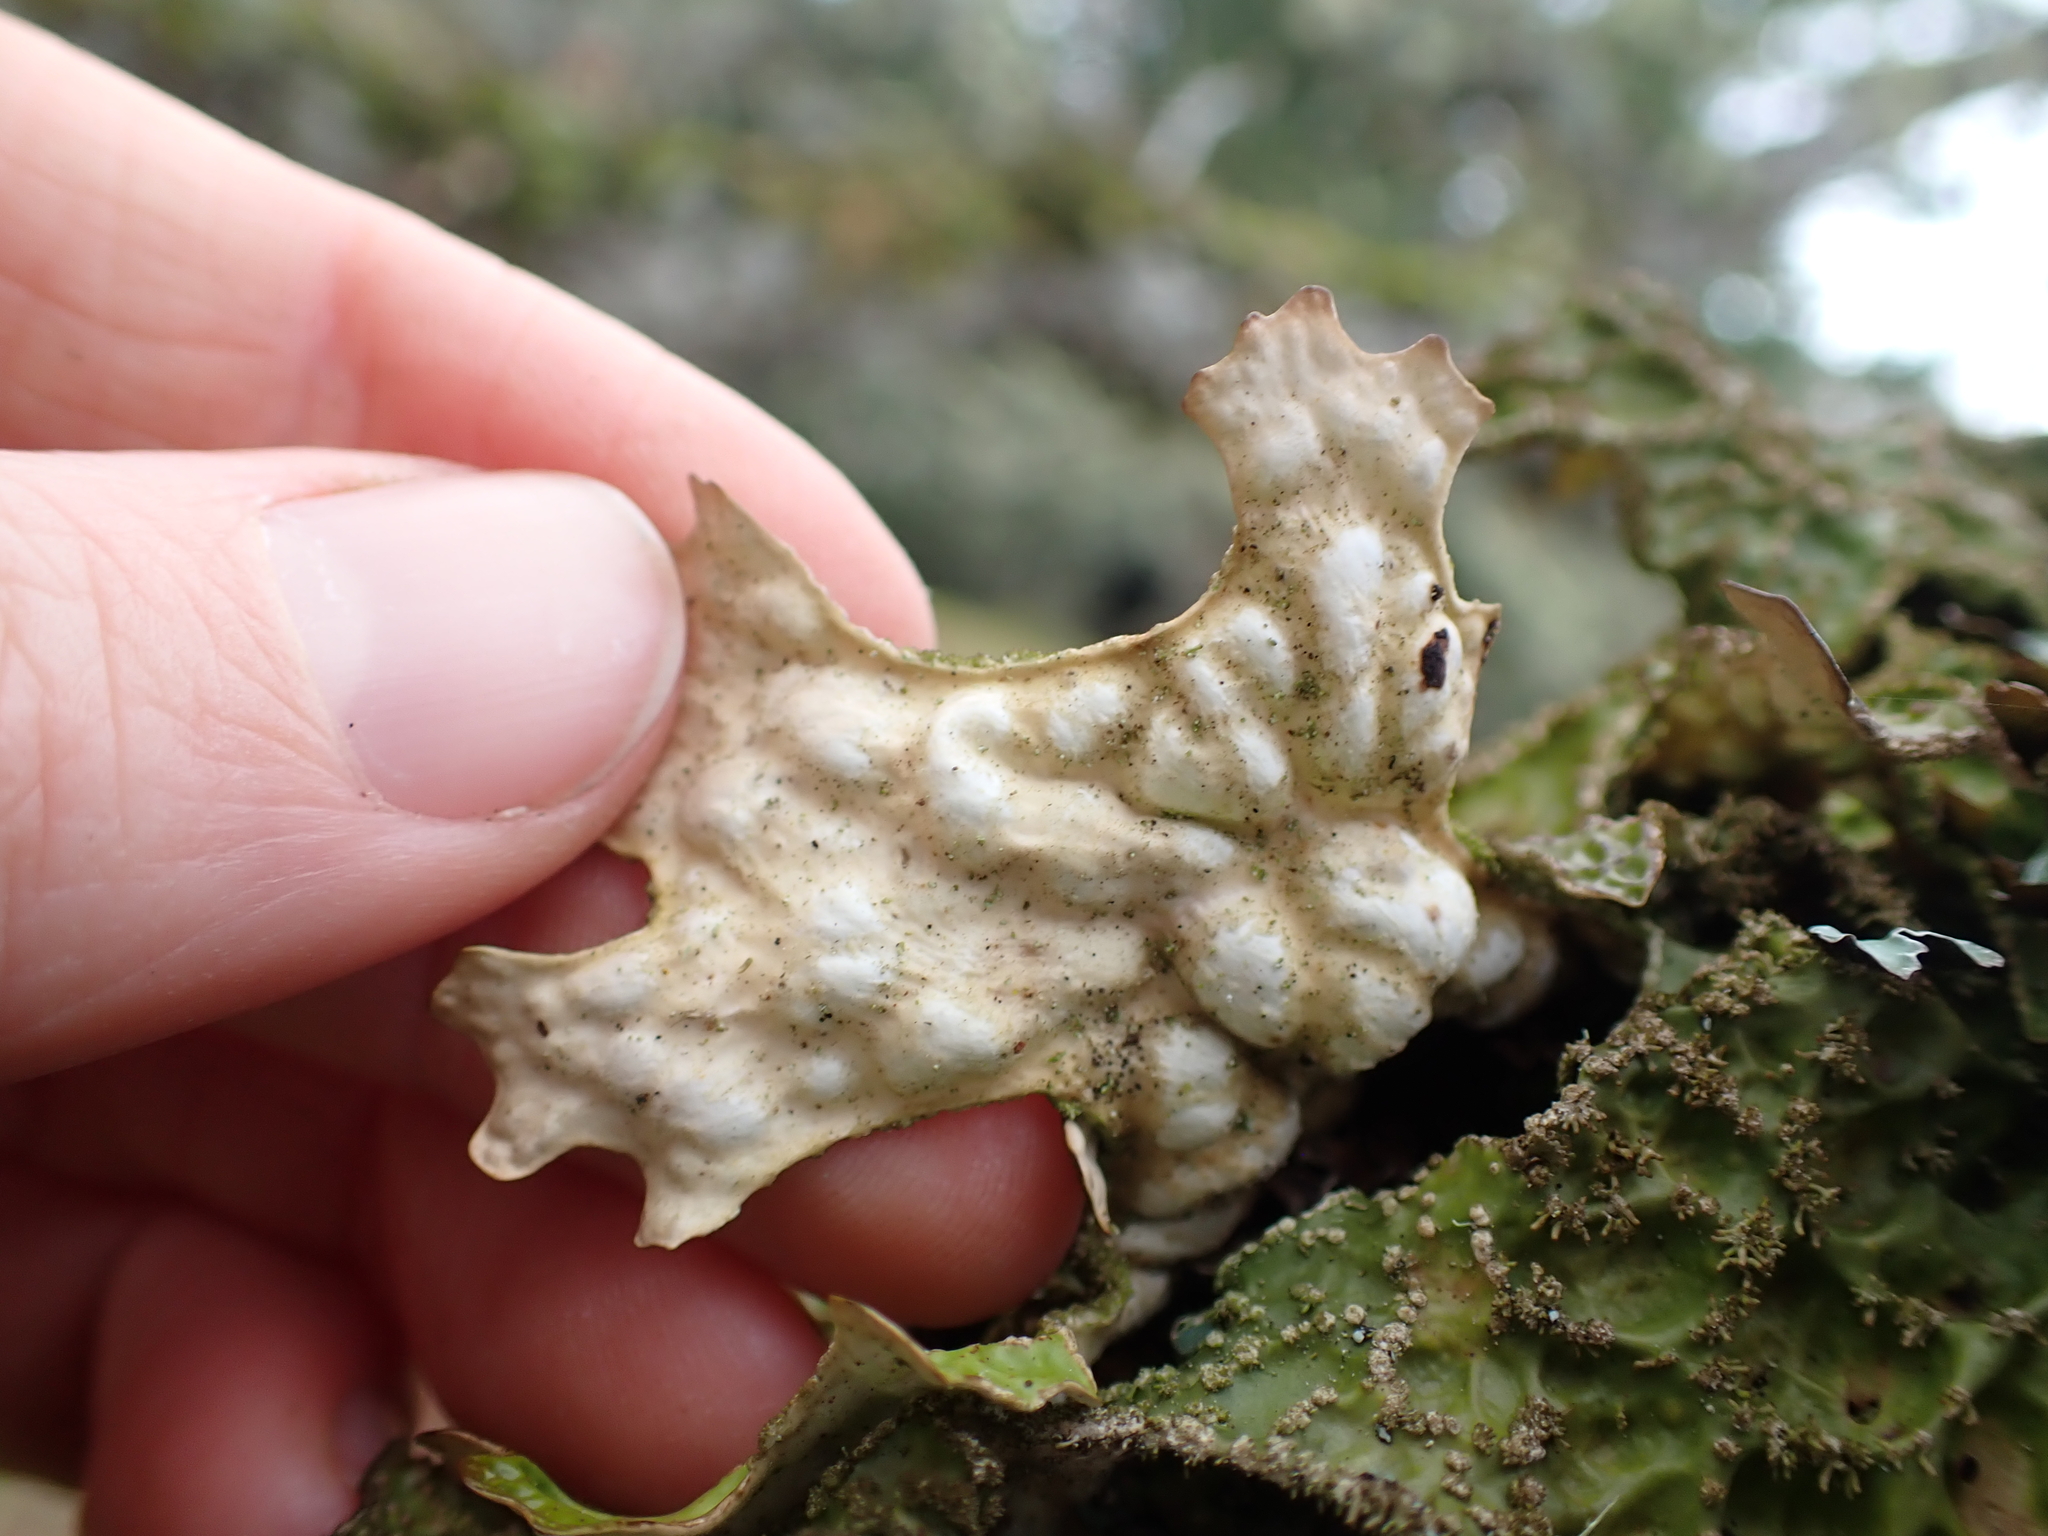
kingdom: Fungi
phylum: Ascomycota
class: Lecanoromycetes
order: Peltigerales
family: Lobariaceae
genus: Lobaria
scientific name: Lobaria pulmonaria
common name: Lungwort
